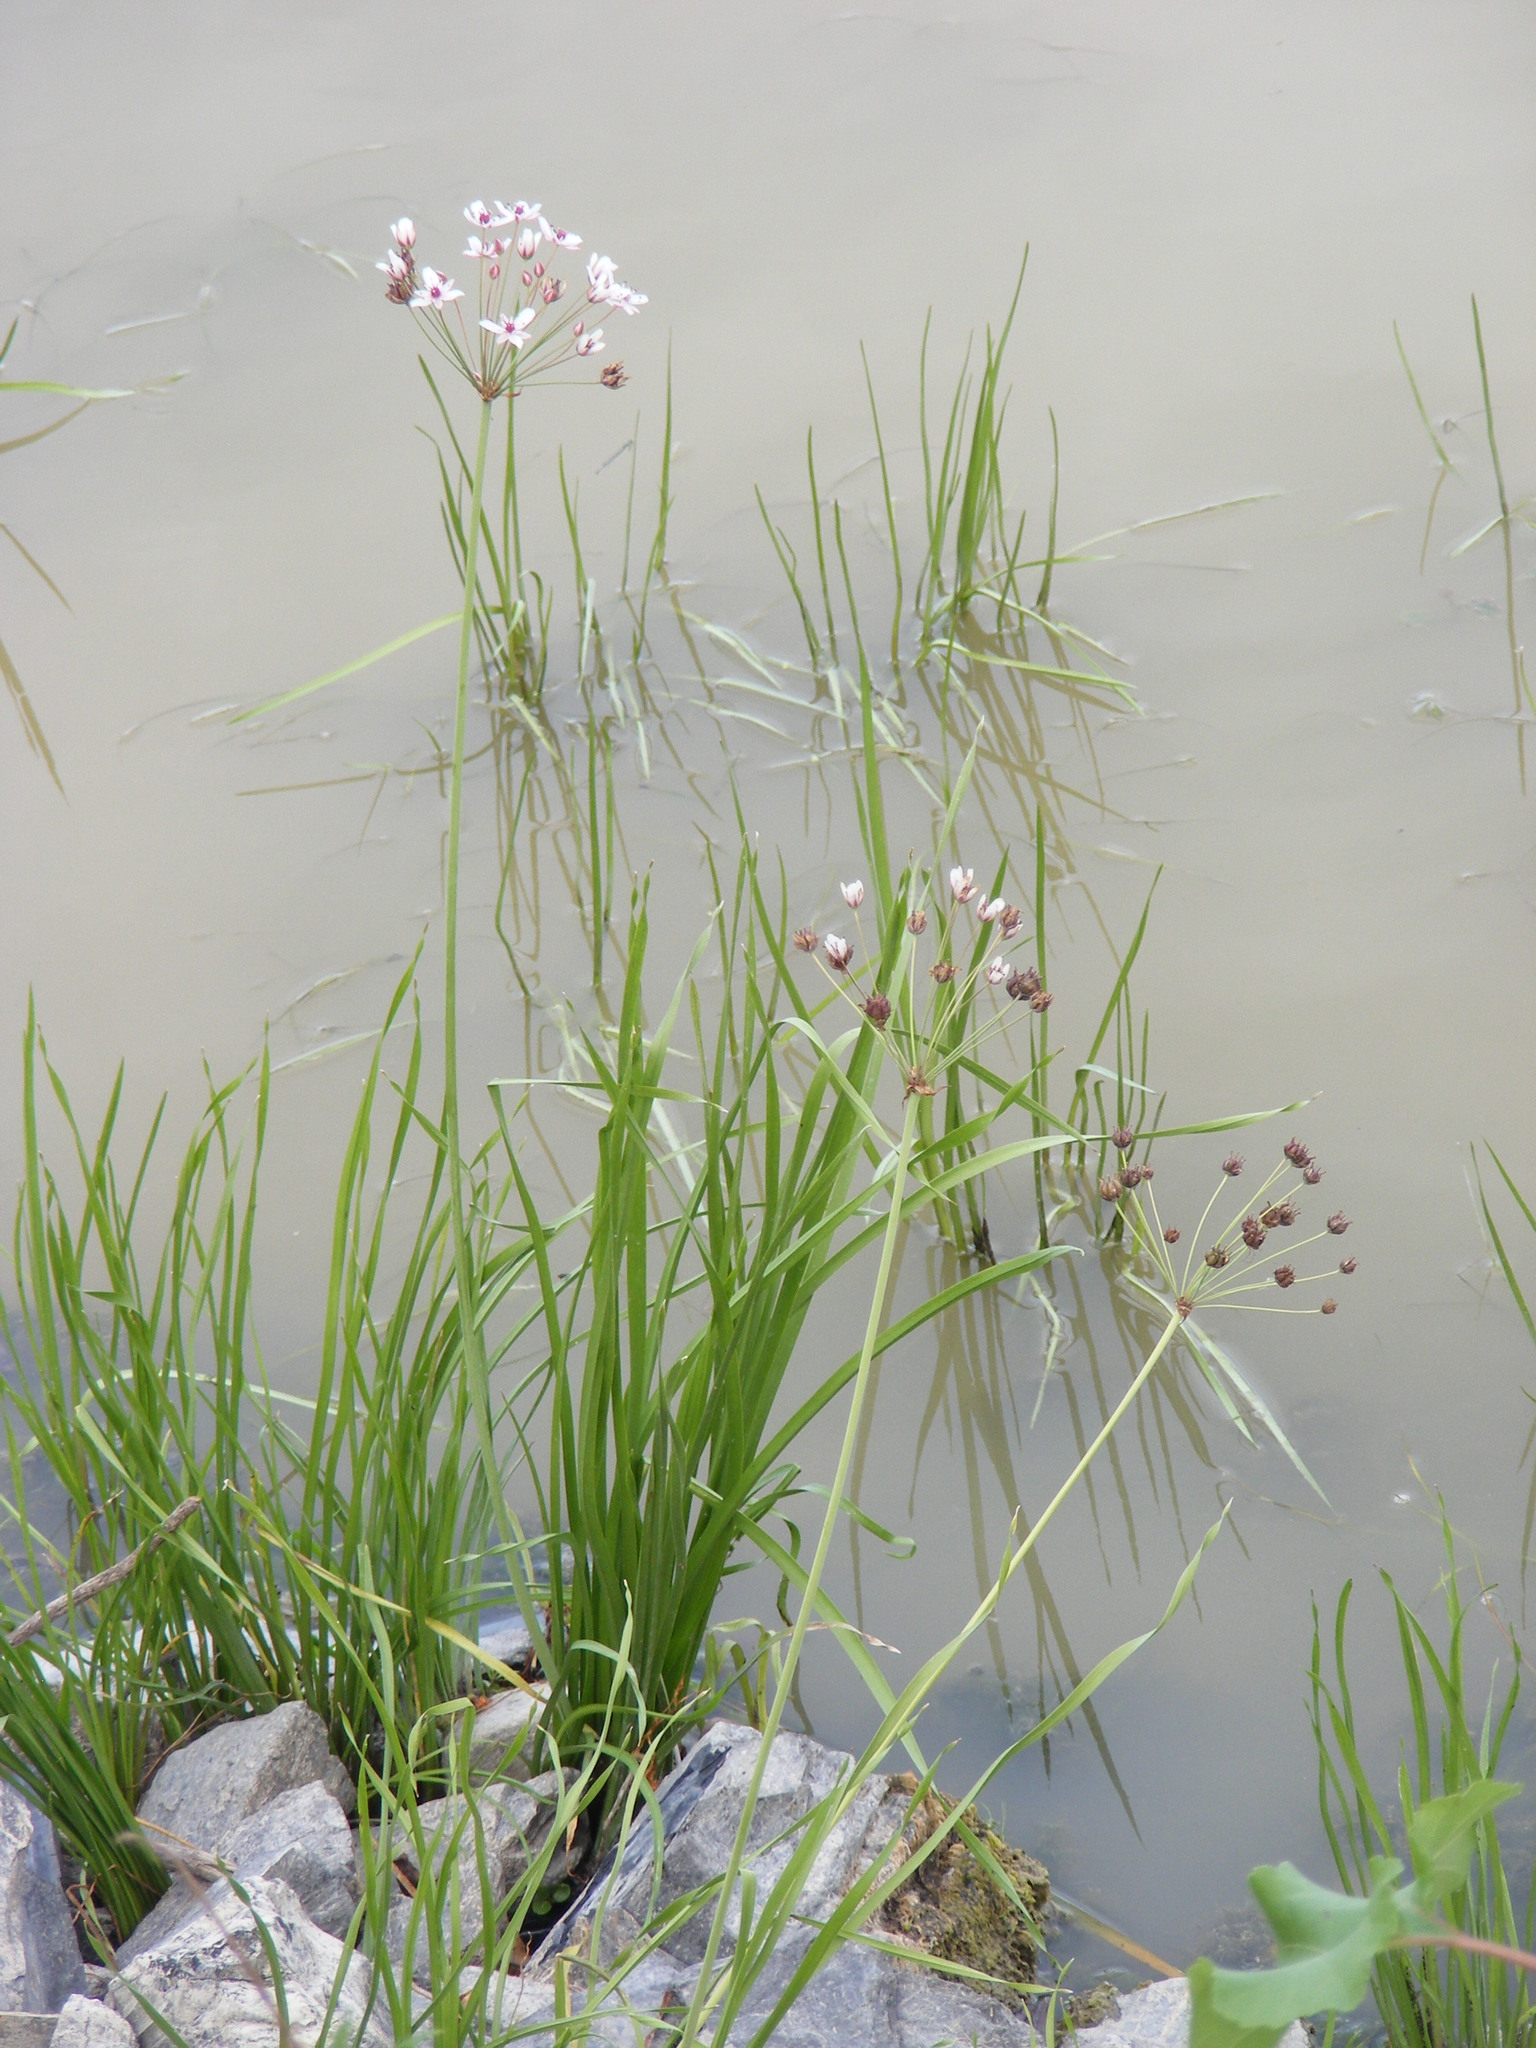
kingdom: Plantae
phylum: Tracheophyta
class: Liliopsida
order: Alismatales
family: Butomaceae
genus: Butomus
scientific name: Butomus umbellatus
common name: Flowering-rush
